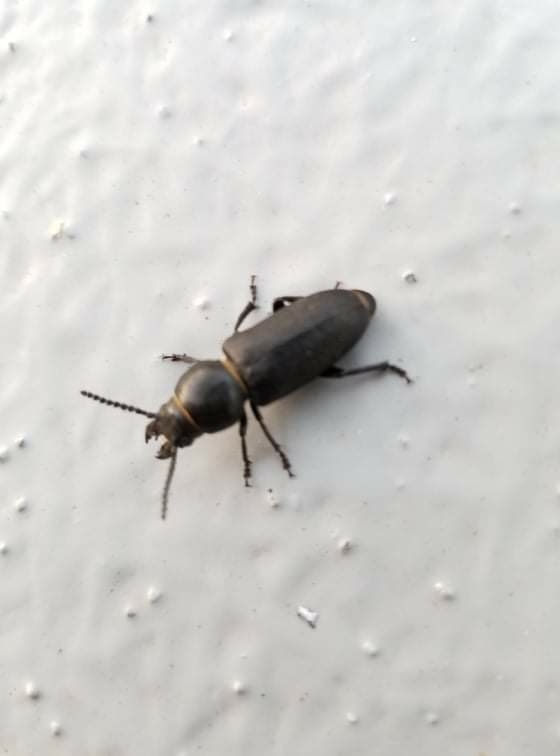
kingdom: Animalia
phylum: Arthropoda
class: Insecta
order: Coleoptera
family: Cerambycidae
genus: Spondylis
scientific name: Spondylis buprestoides
